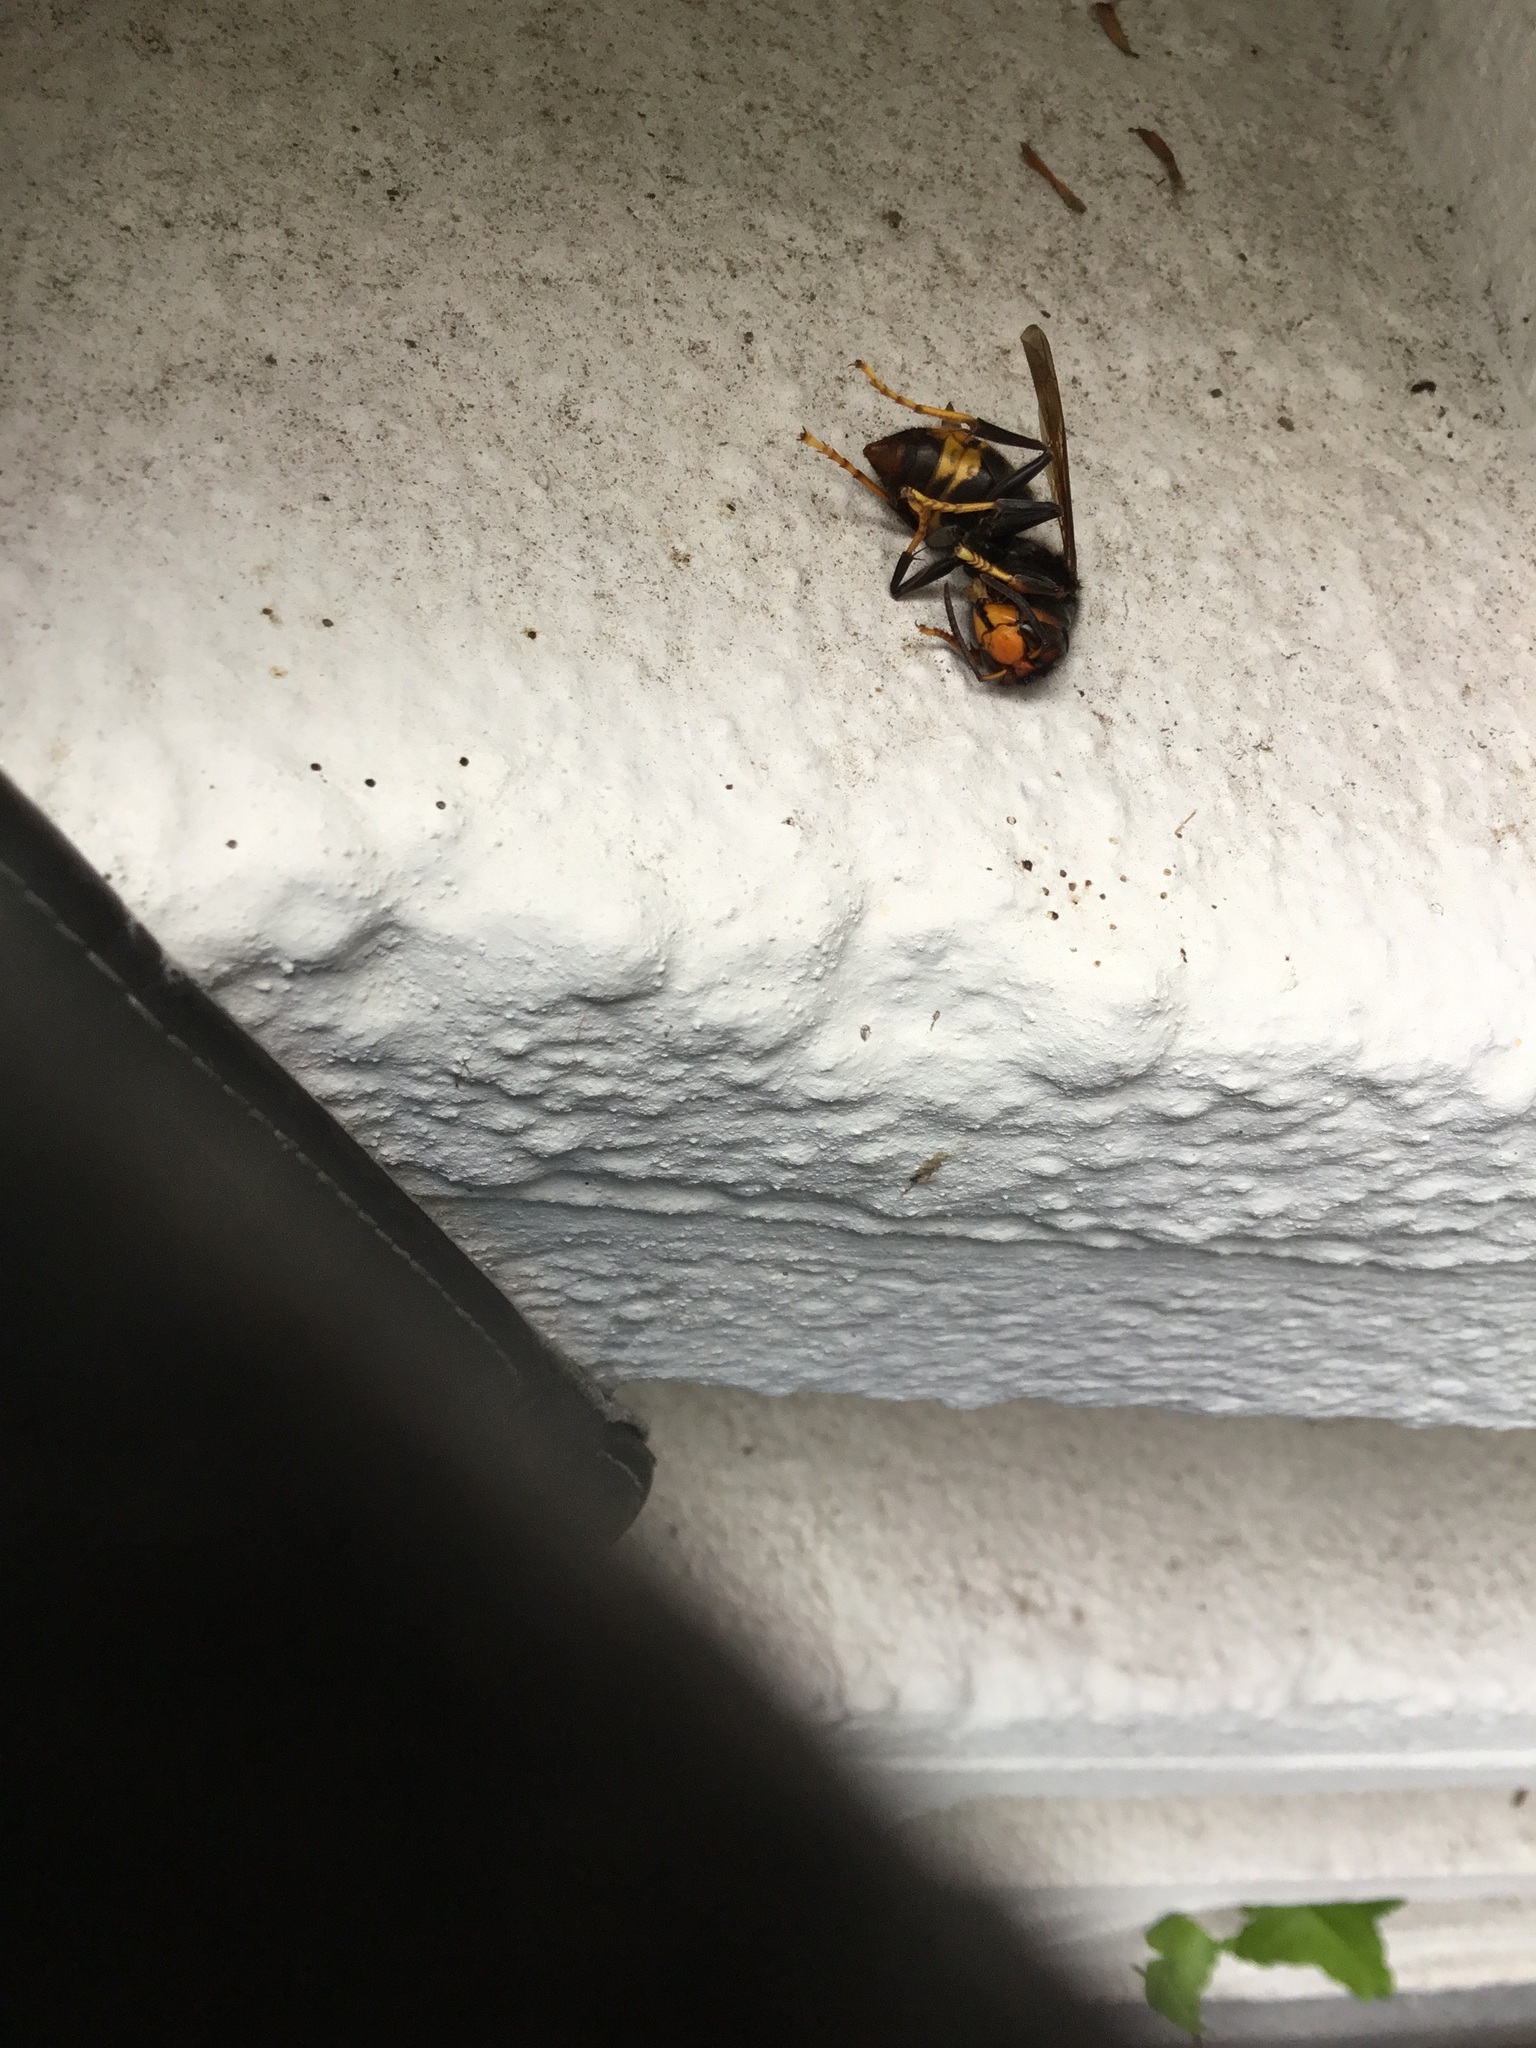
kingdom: Animalia
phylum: Arthropoda
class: Insecta
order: Hymenoptera
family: Vespidae
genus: Vespa
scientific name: Vespa velutina
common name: Asian hornet
